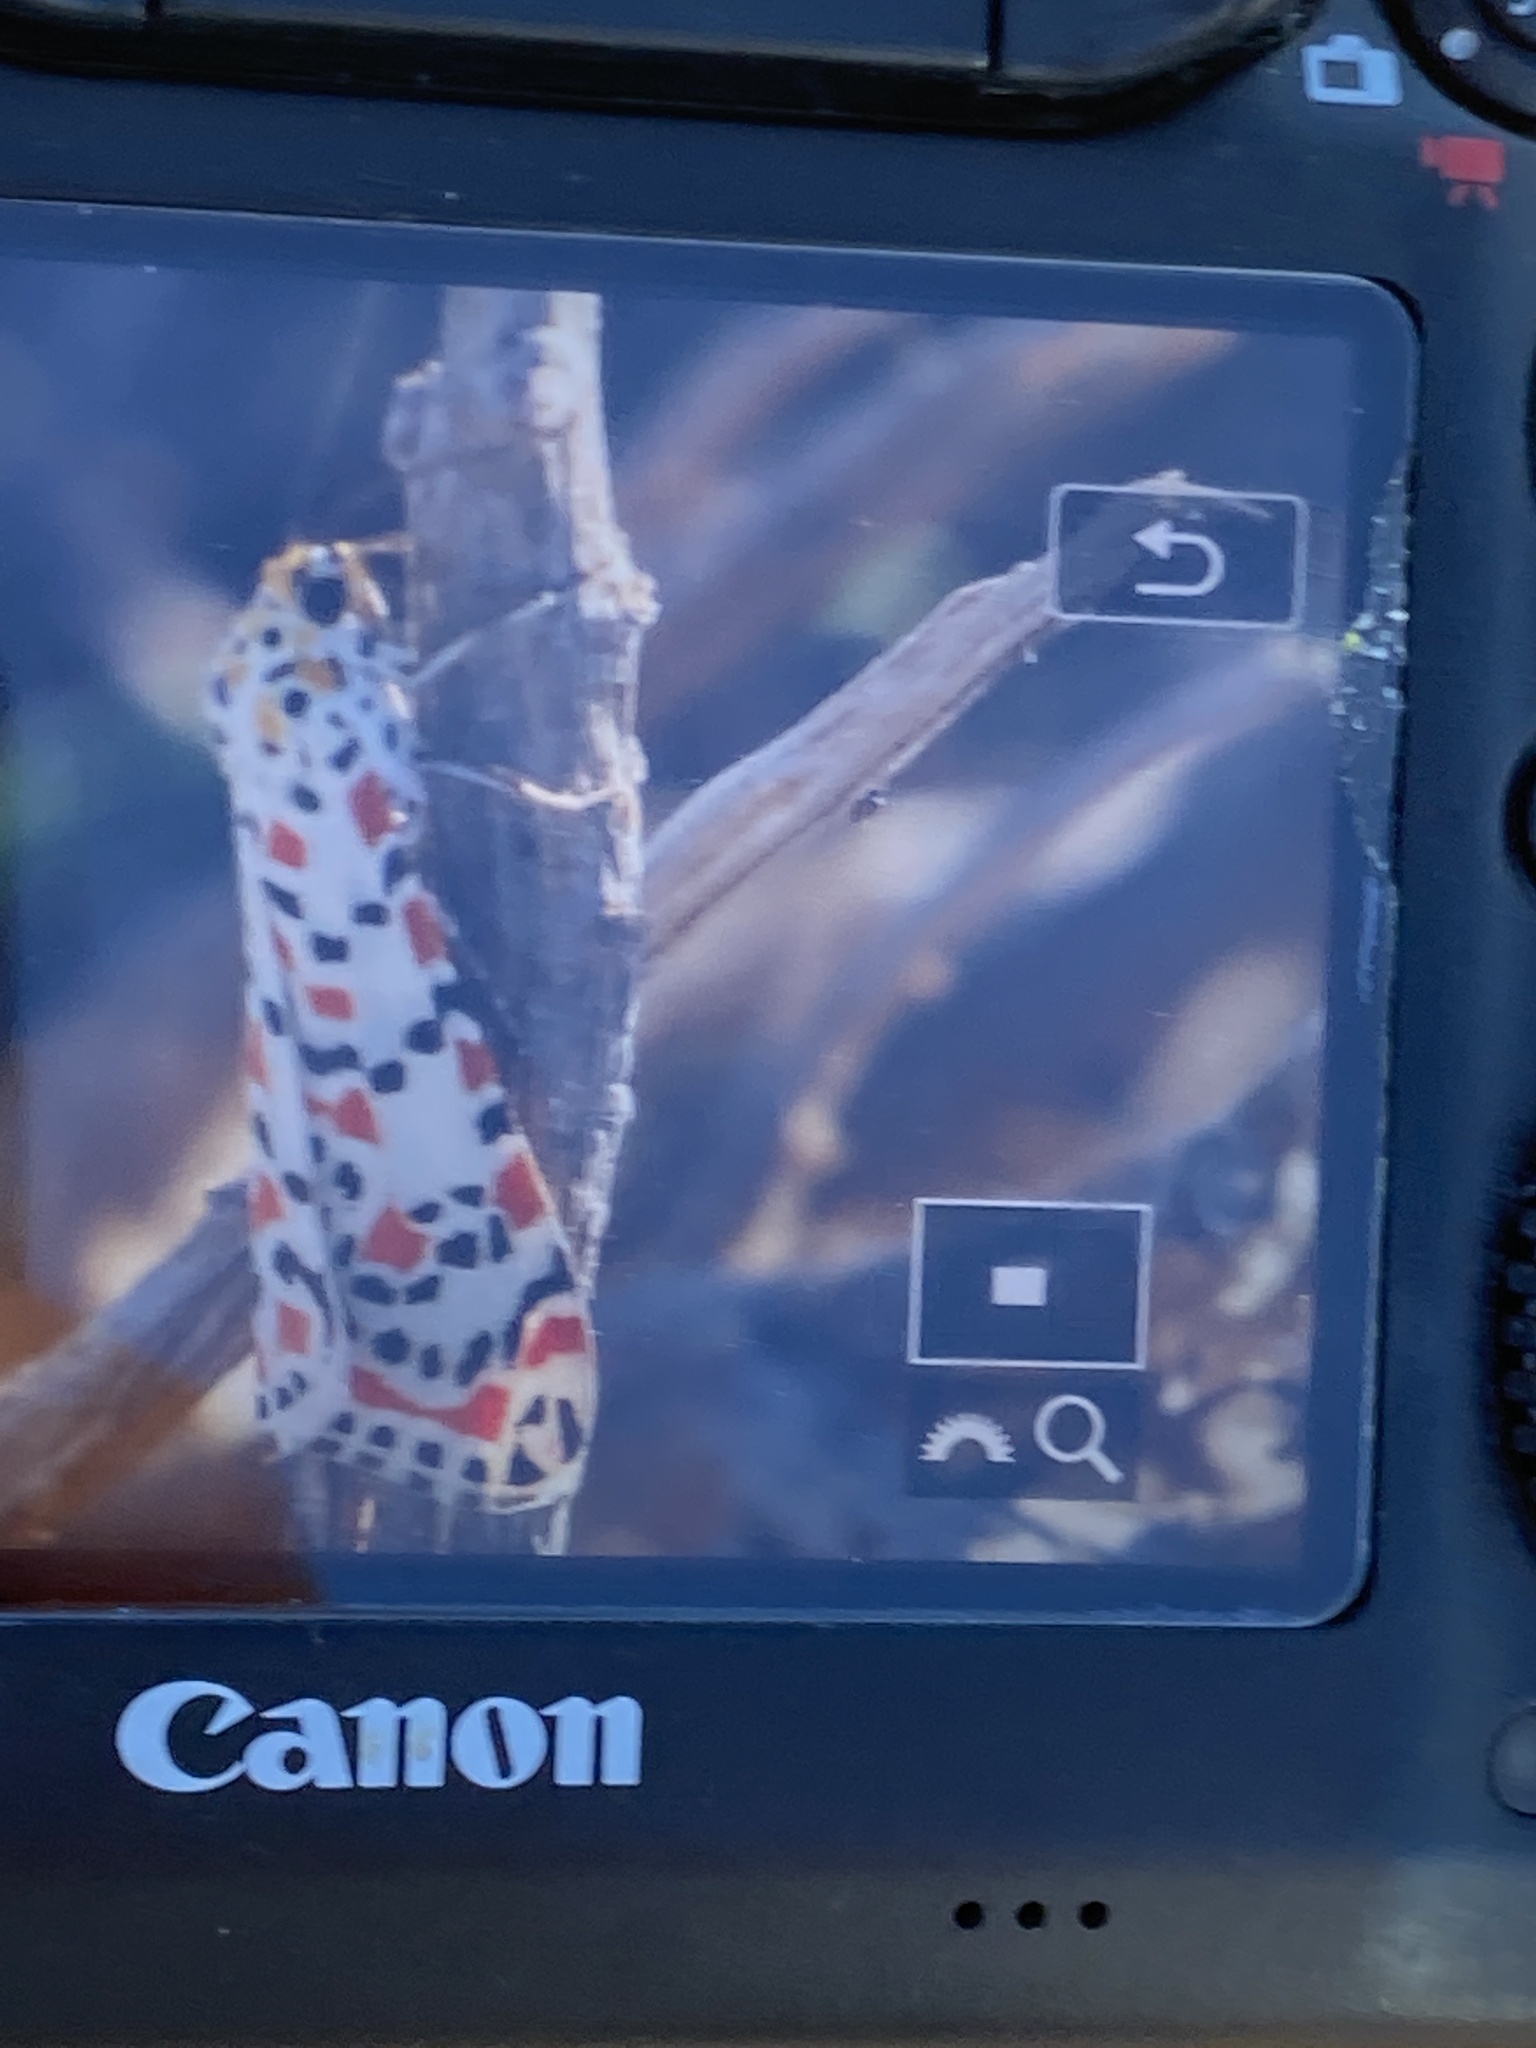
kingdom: Animalia
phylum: Arthropoda
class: Insecta
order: Lepidoptera
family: Erebidae
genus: Utetheisa
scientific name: Utetheisa pulchella
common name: Crimson speckled
